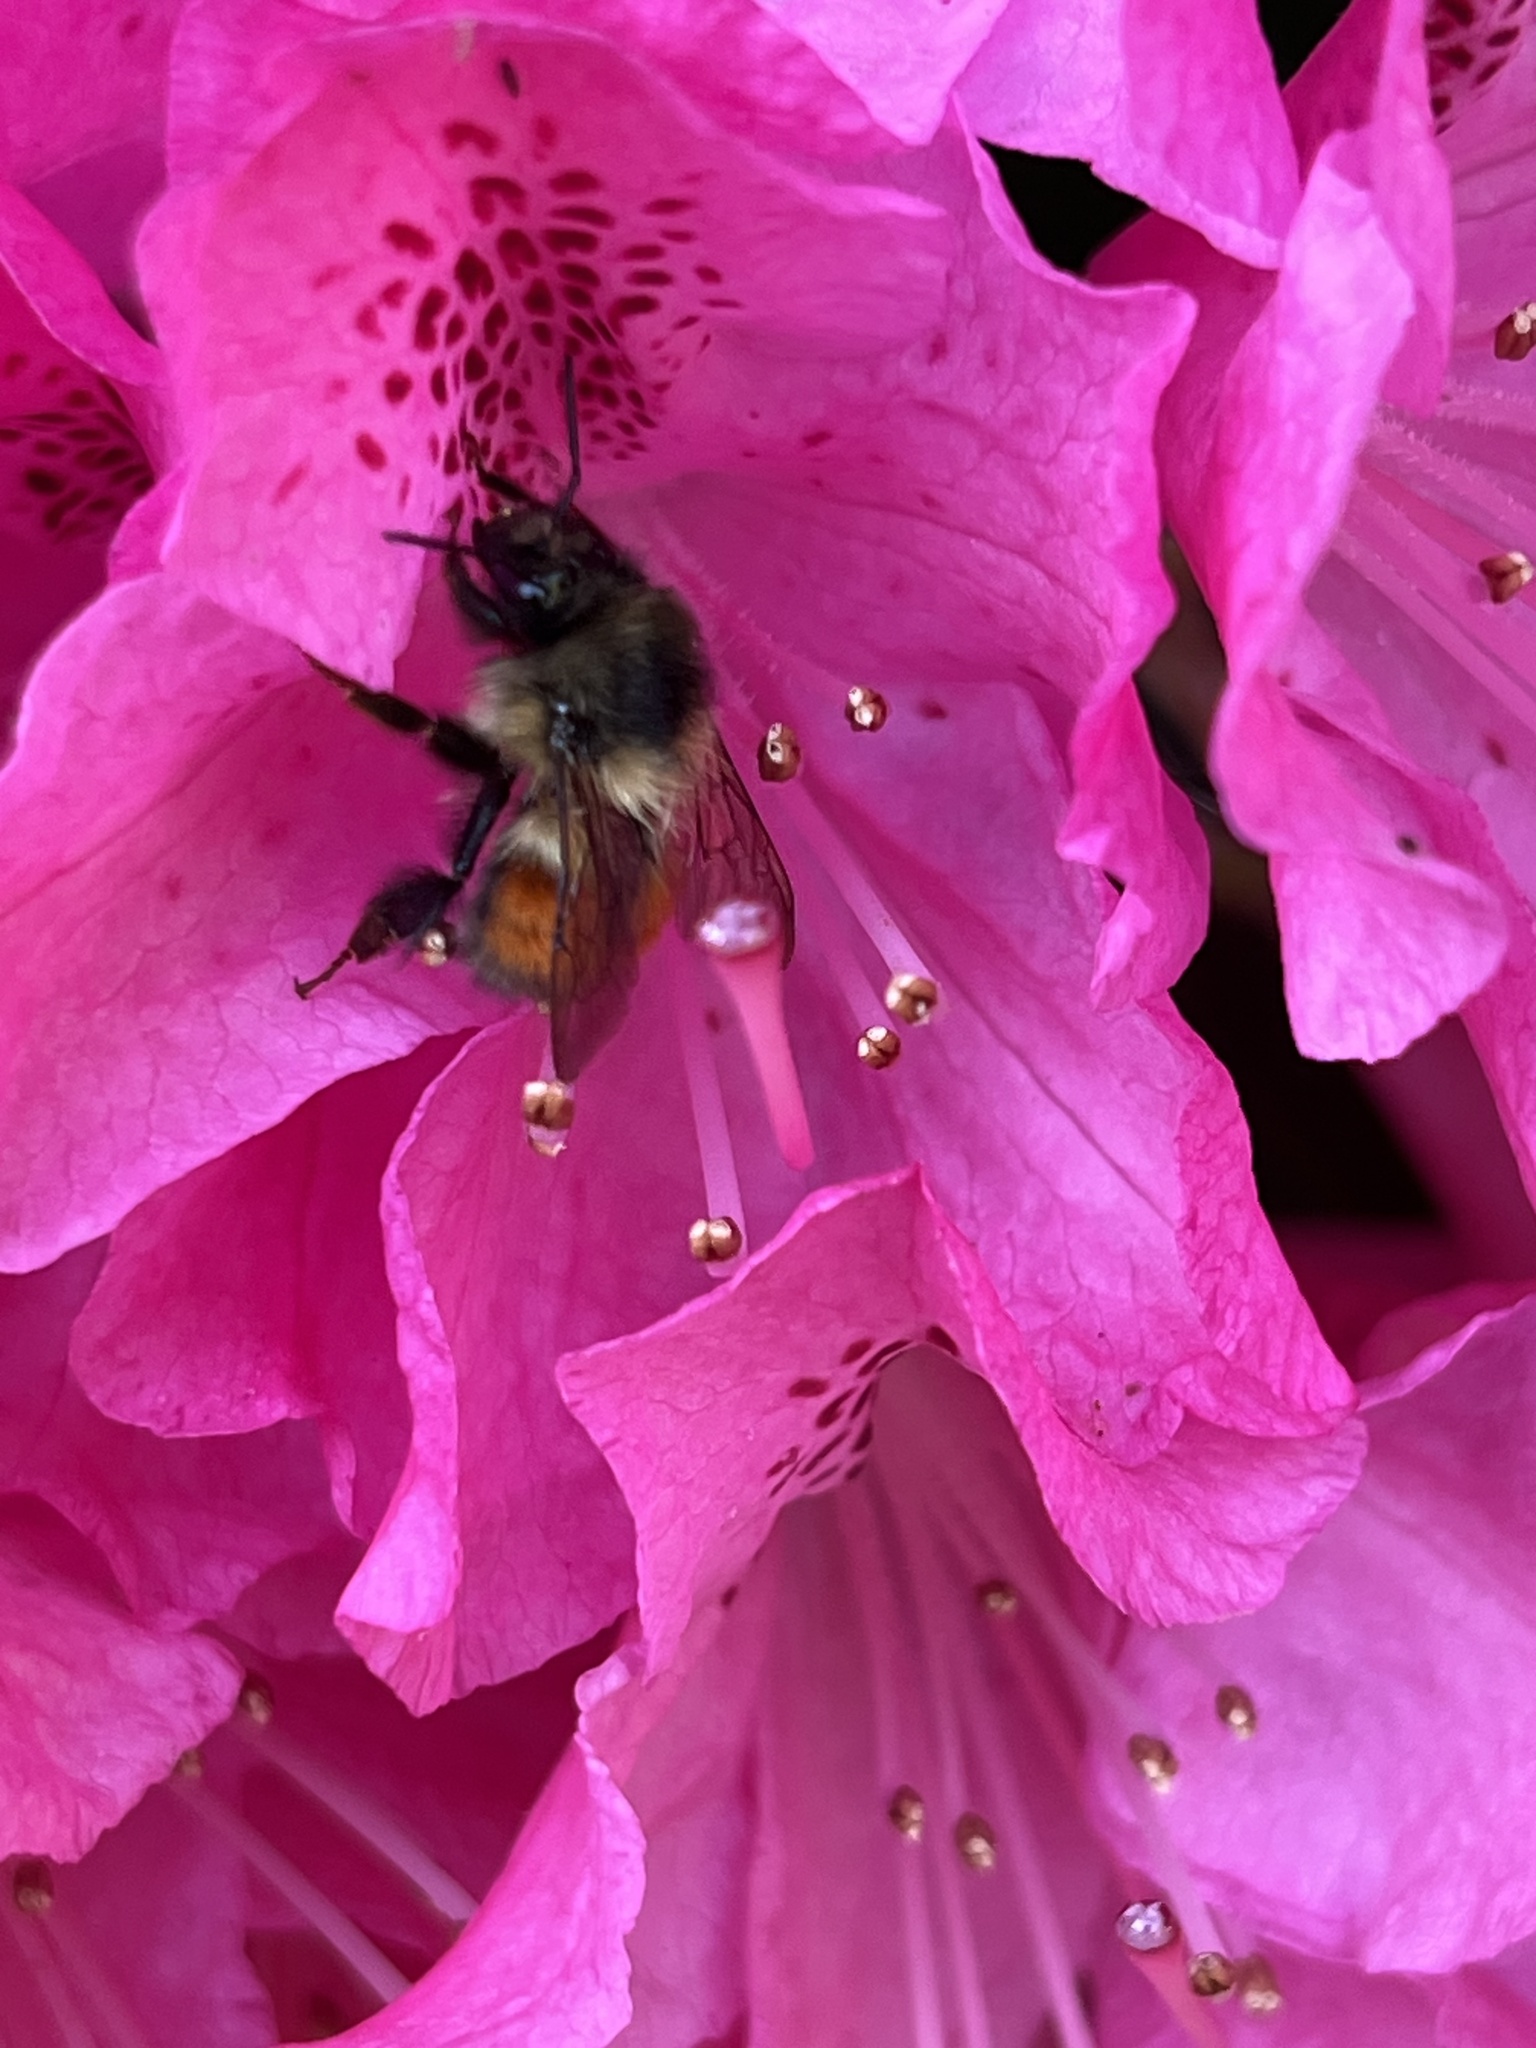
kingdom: Animalia
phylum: Arthropoda
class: Insecta
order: Hymenoptera
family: Apidae
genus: Bombus
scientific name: Bombus melanopygus
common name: Black tail bumble bee
